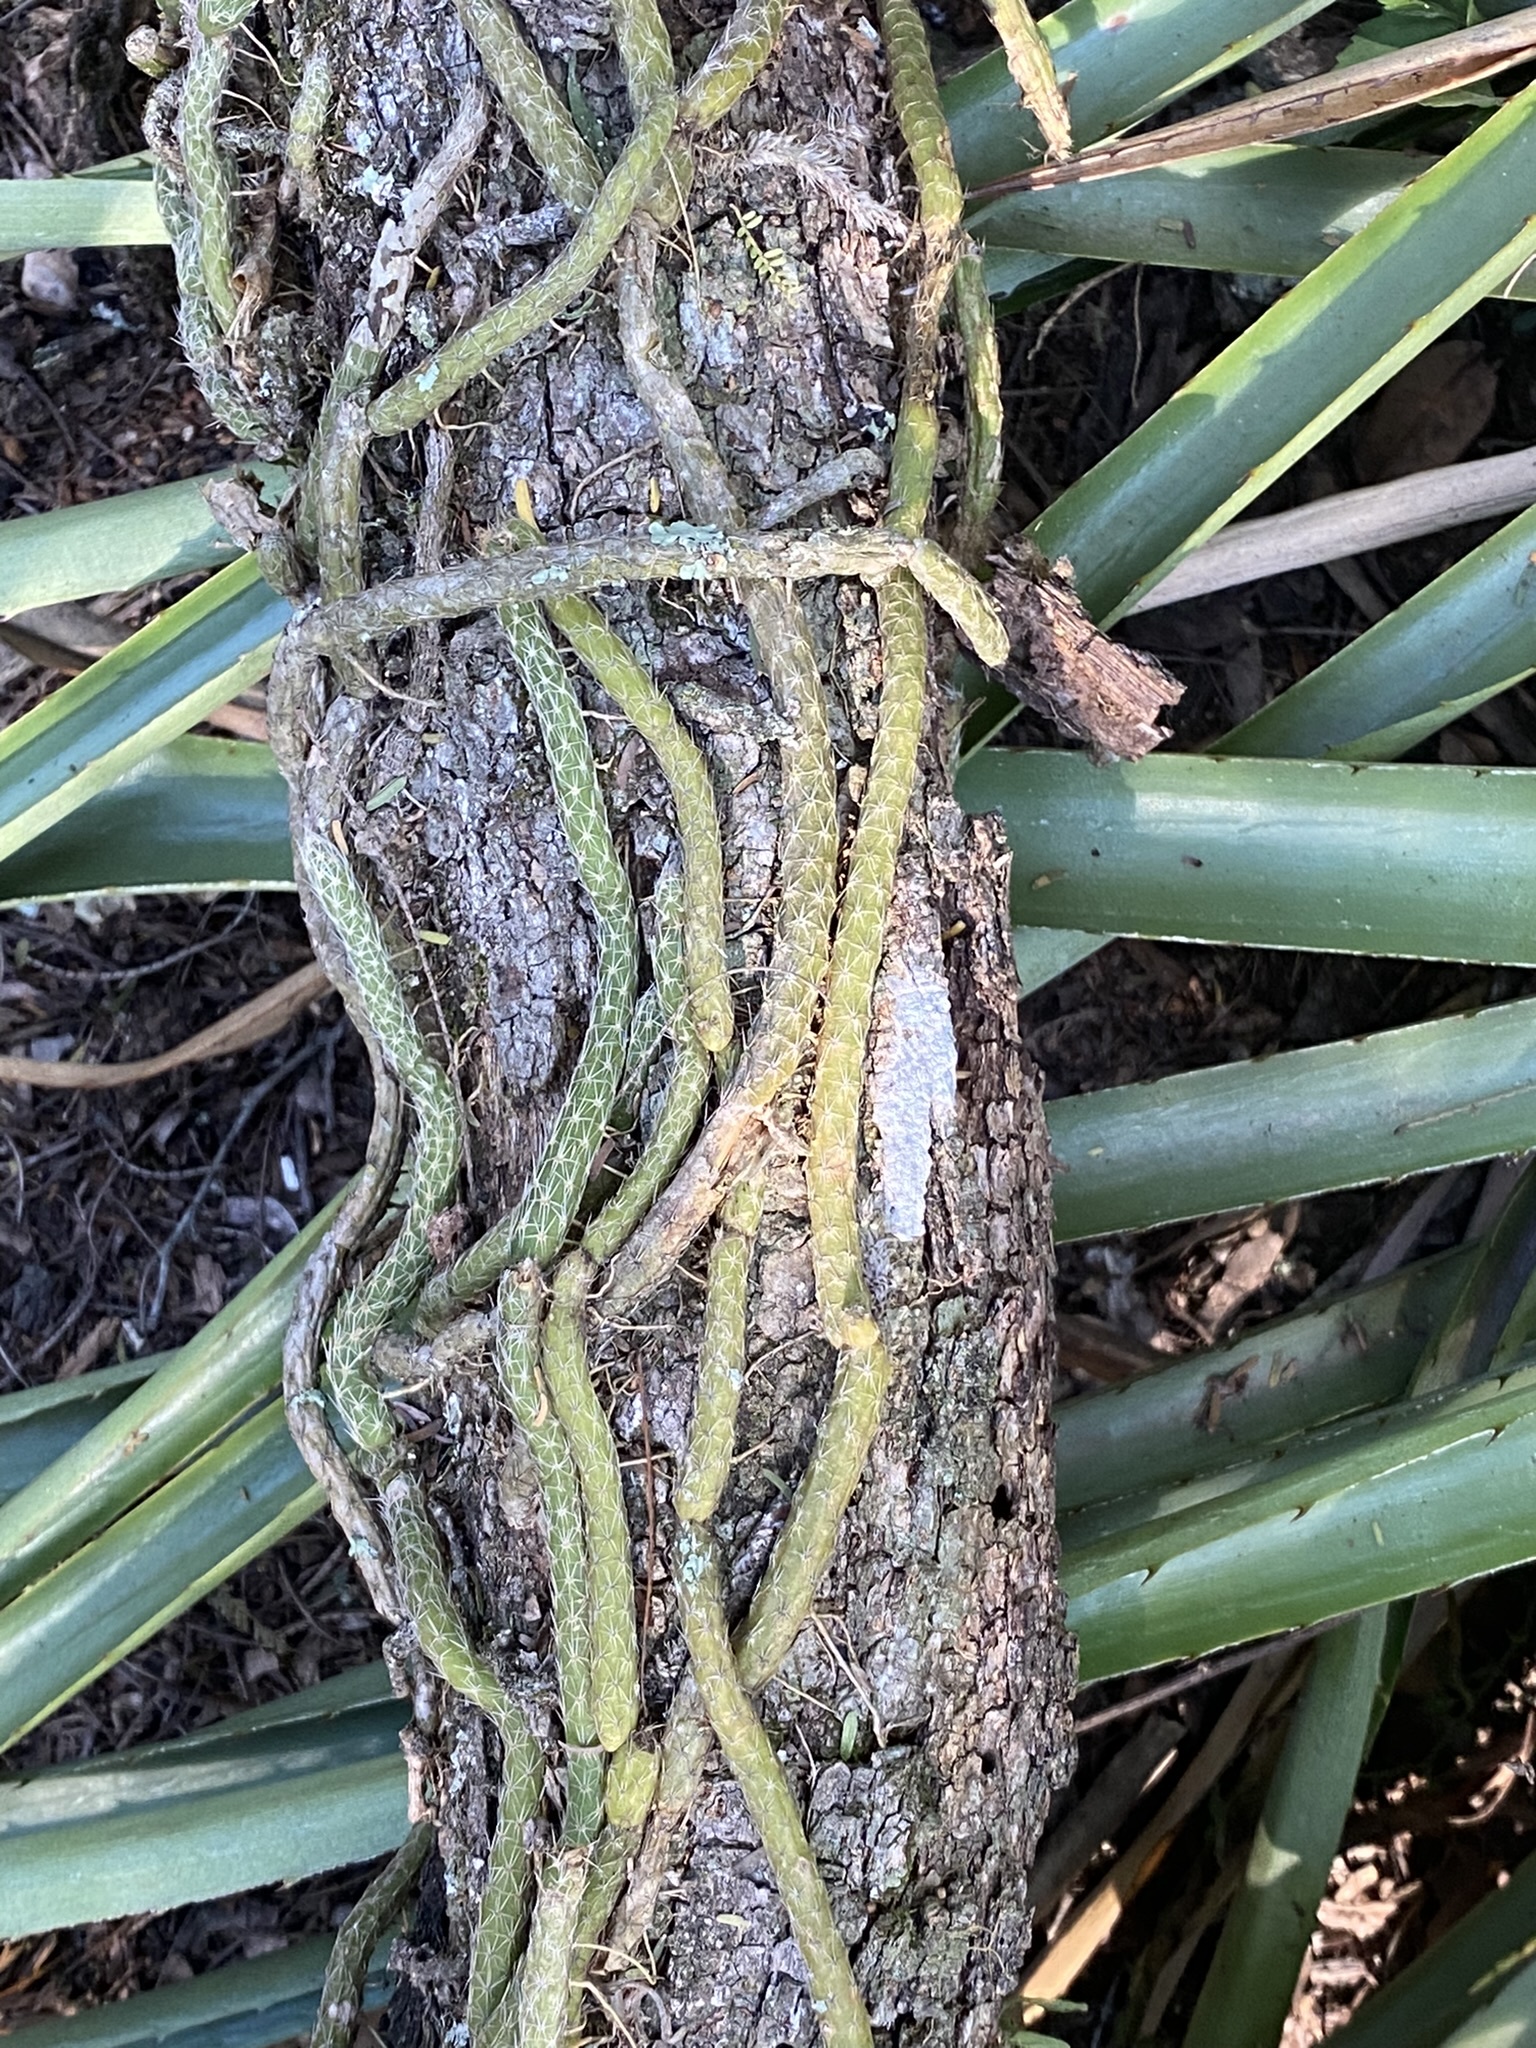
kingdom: Plantae
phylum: Tracheophyta
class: Magnoliopsida
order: Caryophyllales
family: Cactaceae
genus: Lepismium
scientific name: Lepismium lumbricoides
